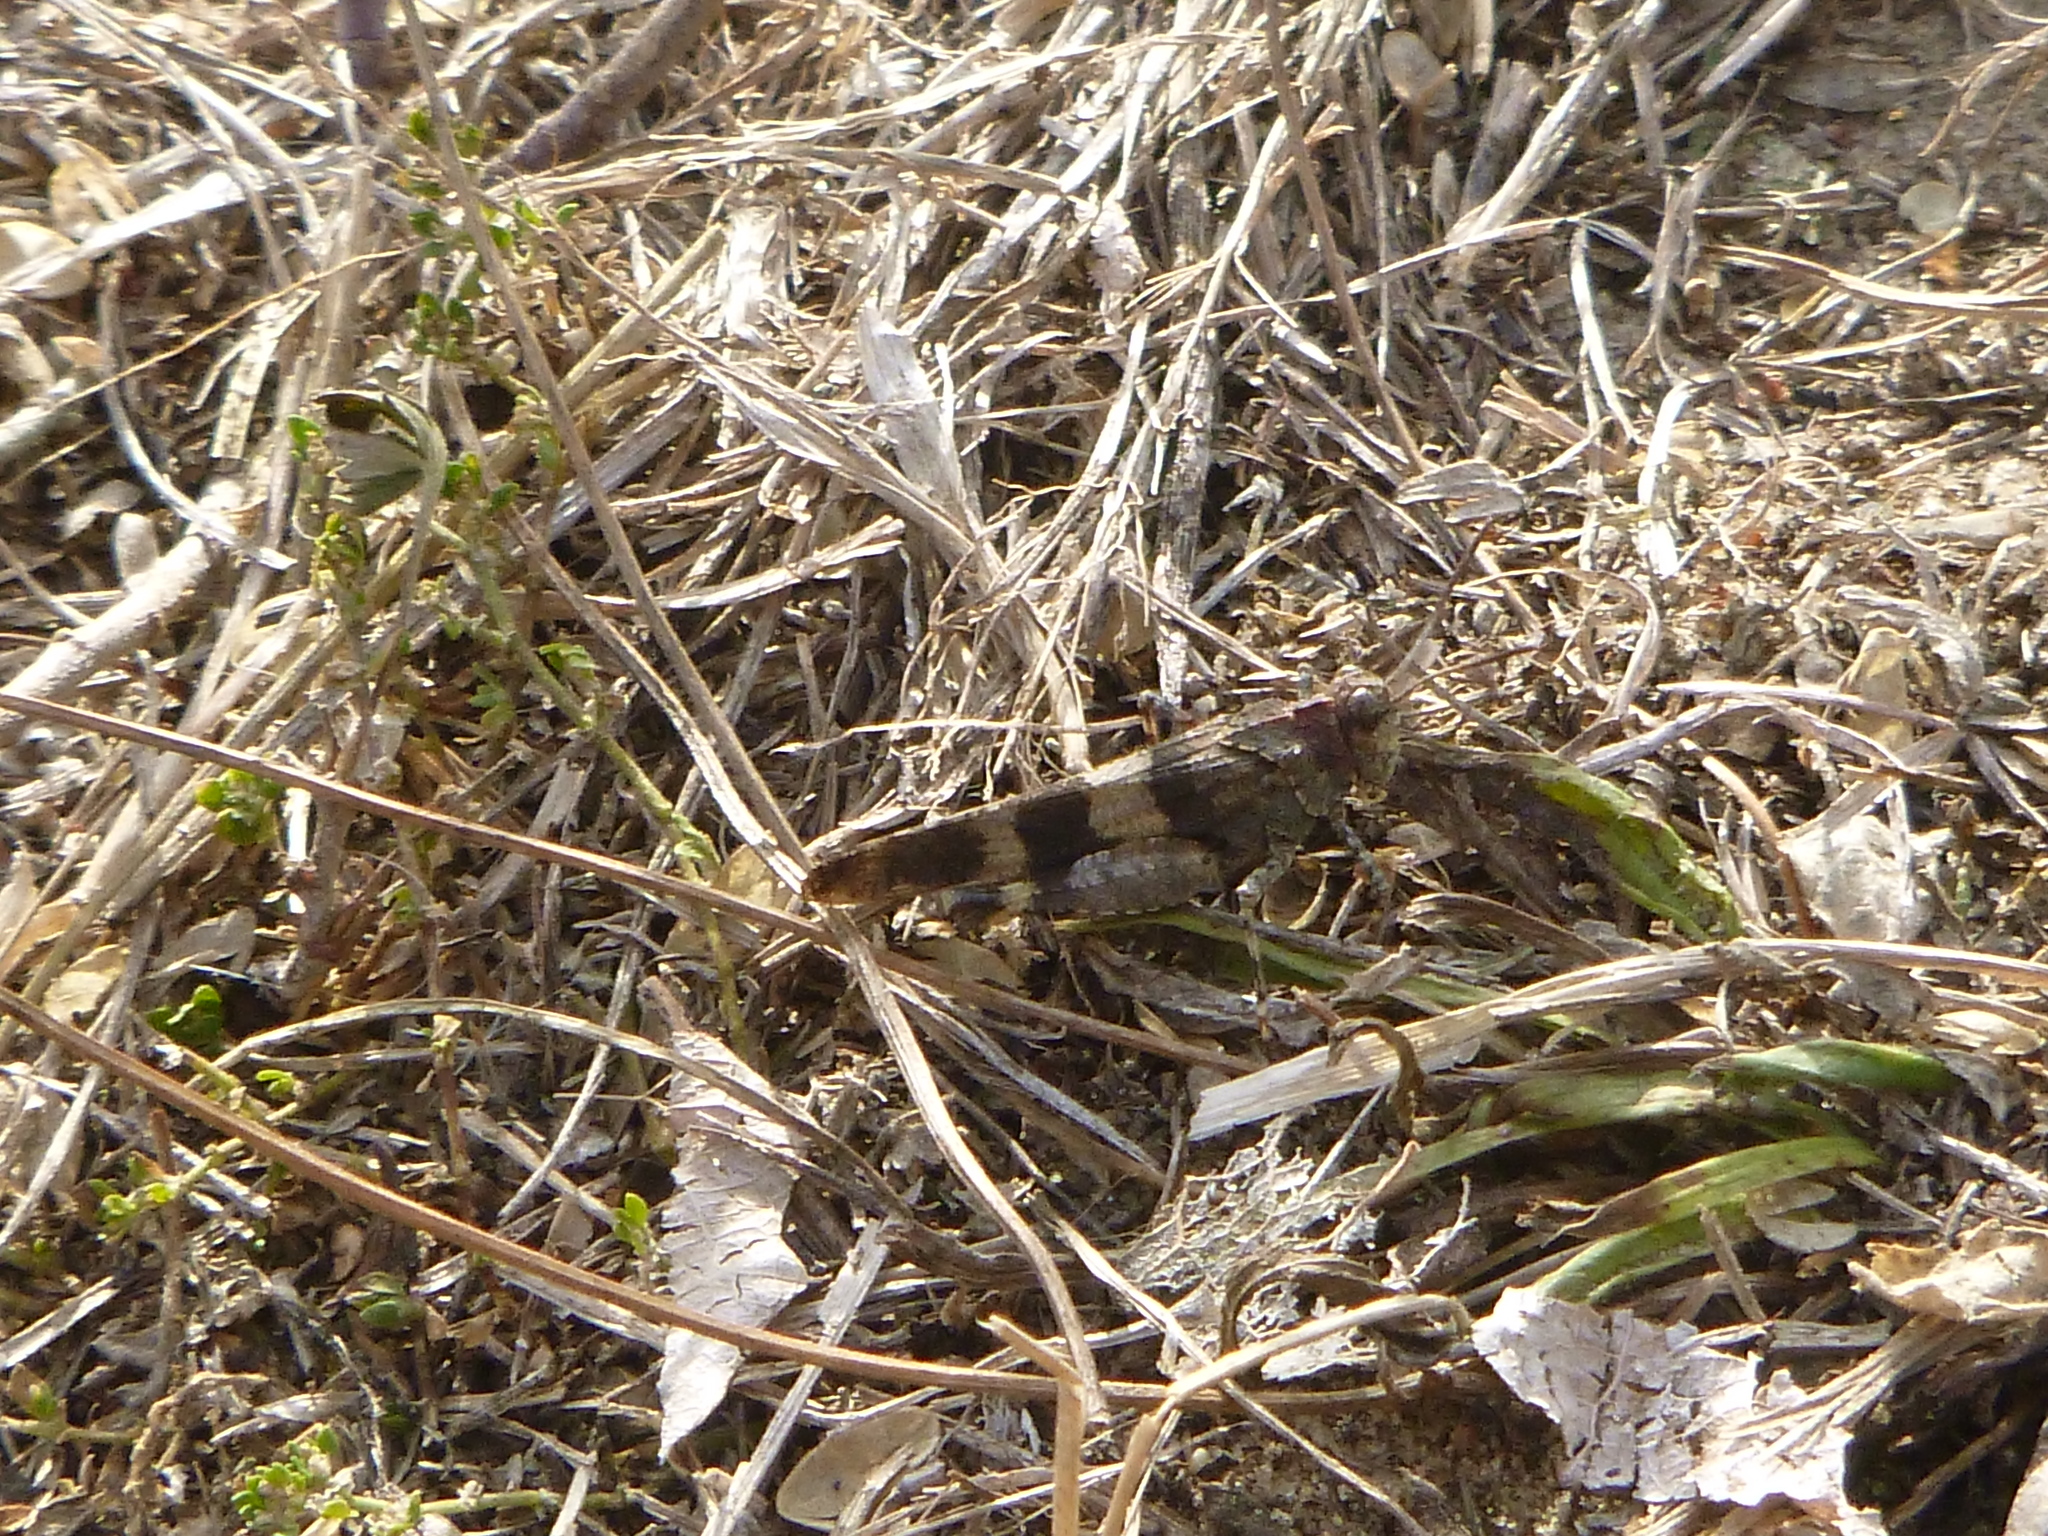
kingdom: Animalia
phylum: Arthropoda
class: Insecta
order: Orthoptera
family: Acrididae
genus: Oedipoda
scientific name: Oedipoda caerulescens
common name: Blue-winged grasshopper
